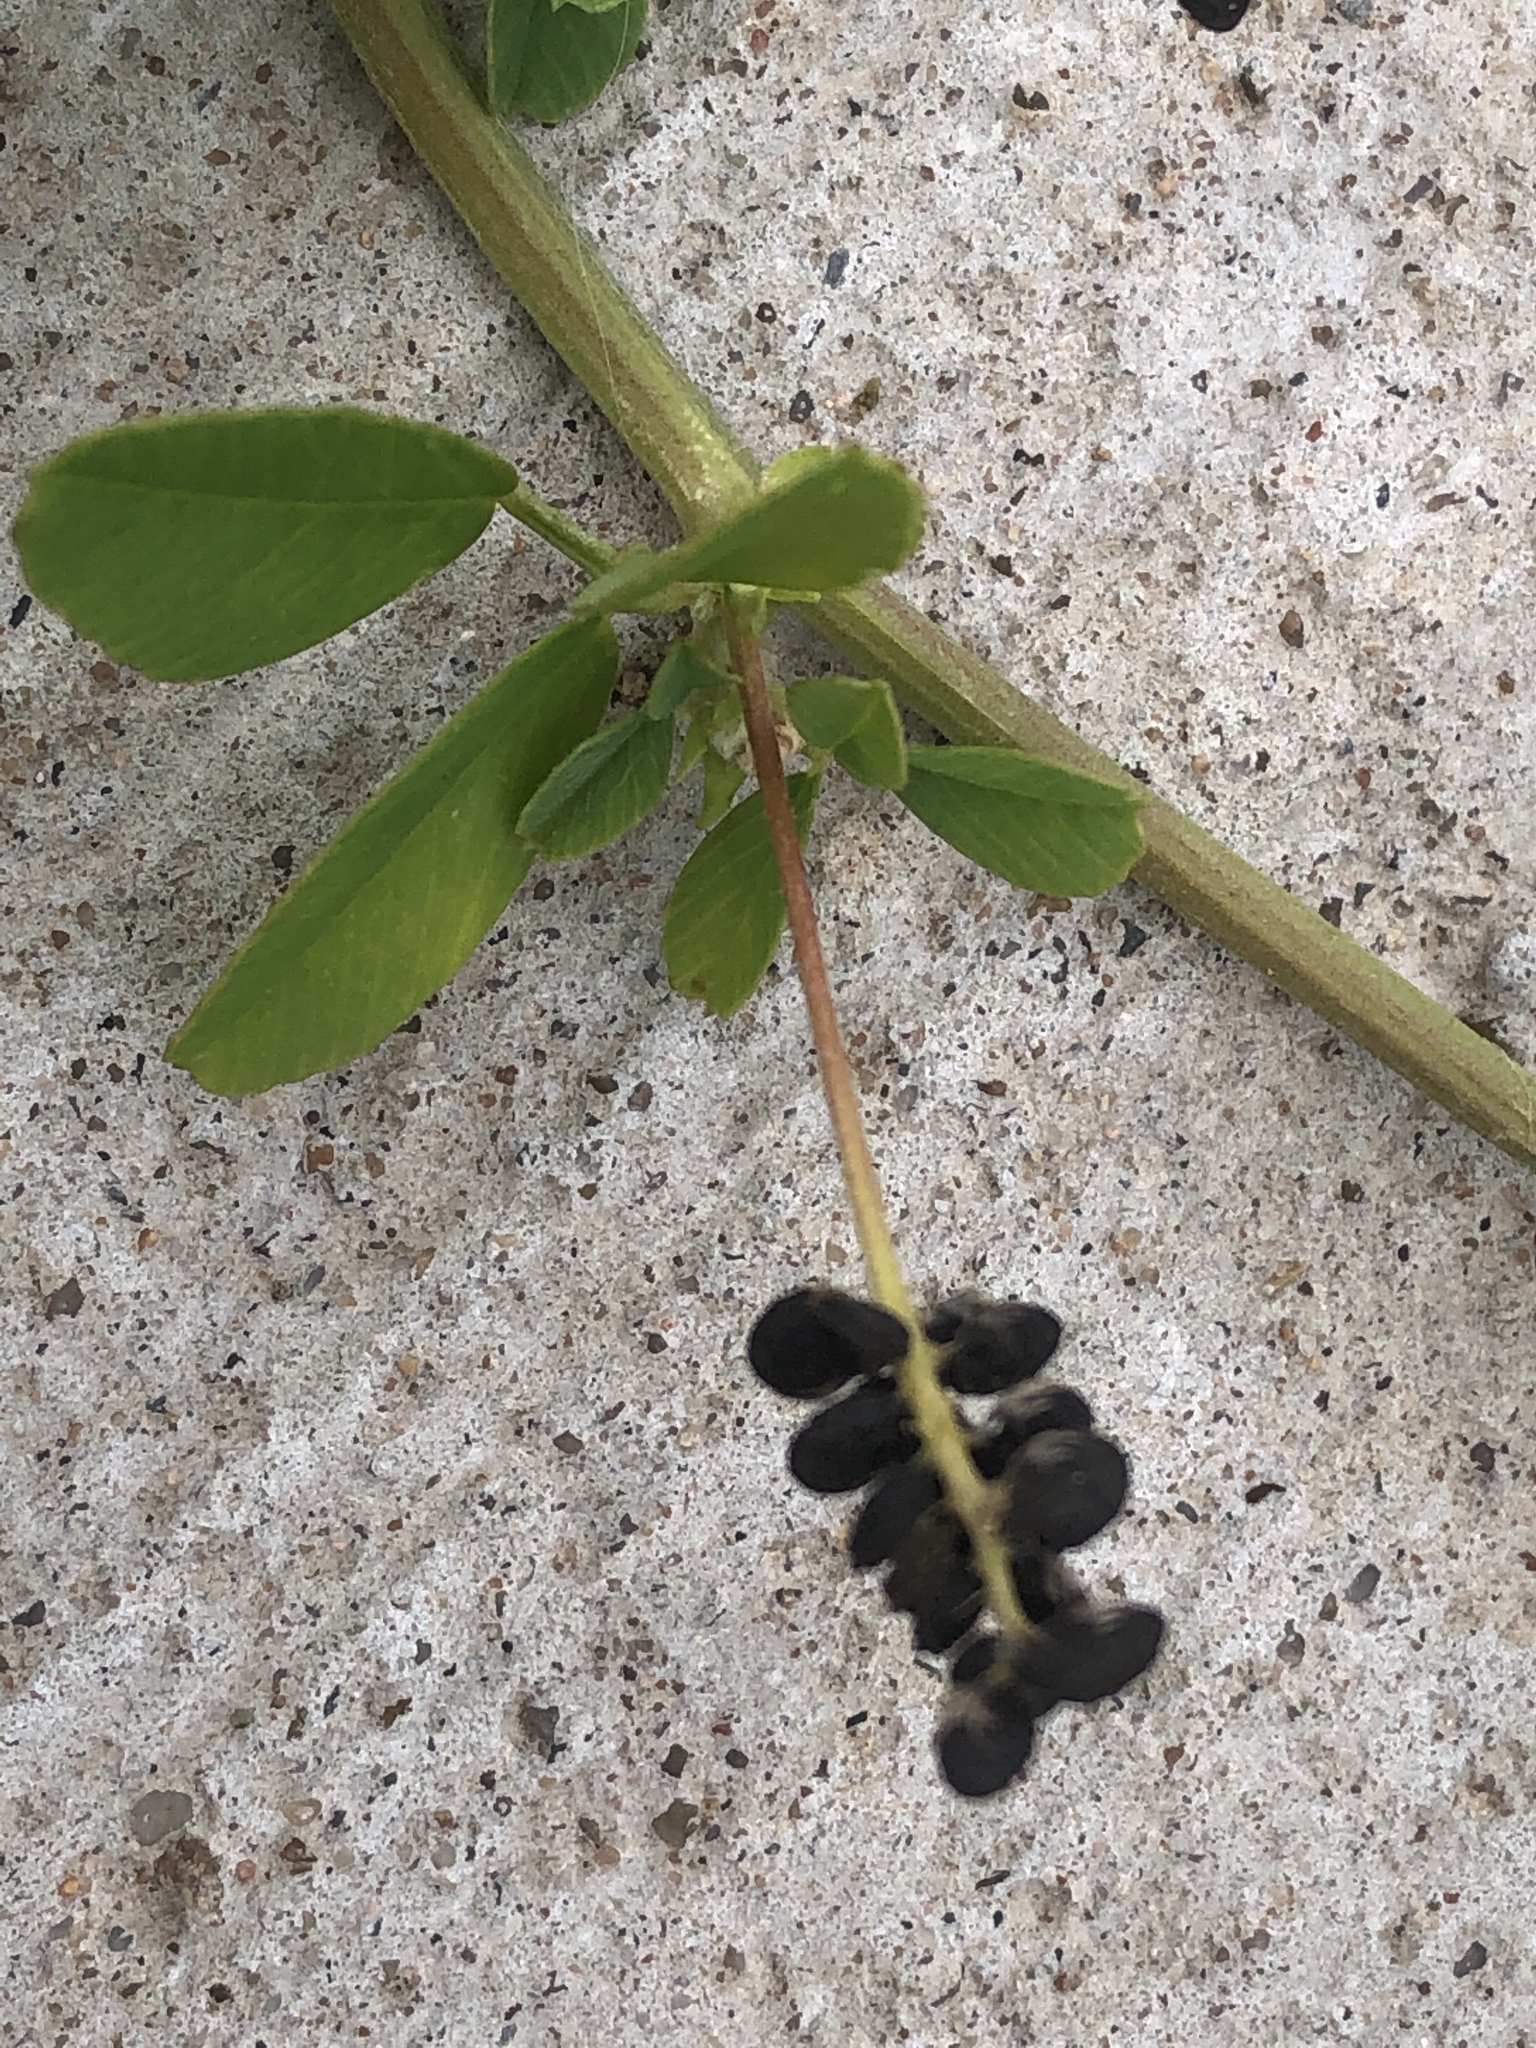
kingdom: Plantae
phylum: Tracheophyta
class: Magnoliopsida
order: Fabales
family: Fabaceae
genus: Medicago
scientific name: Medicago lupulina
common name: Black medick
